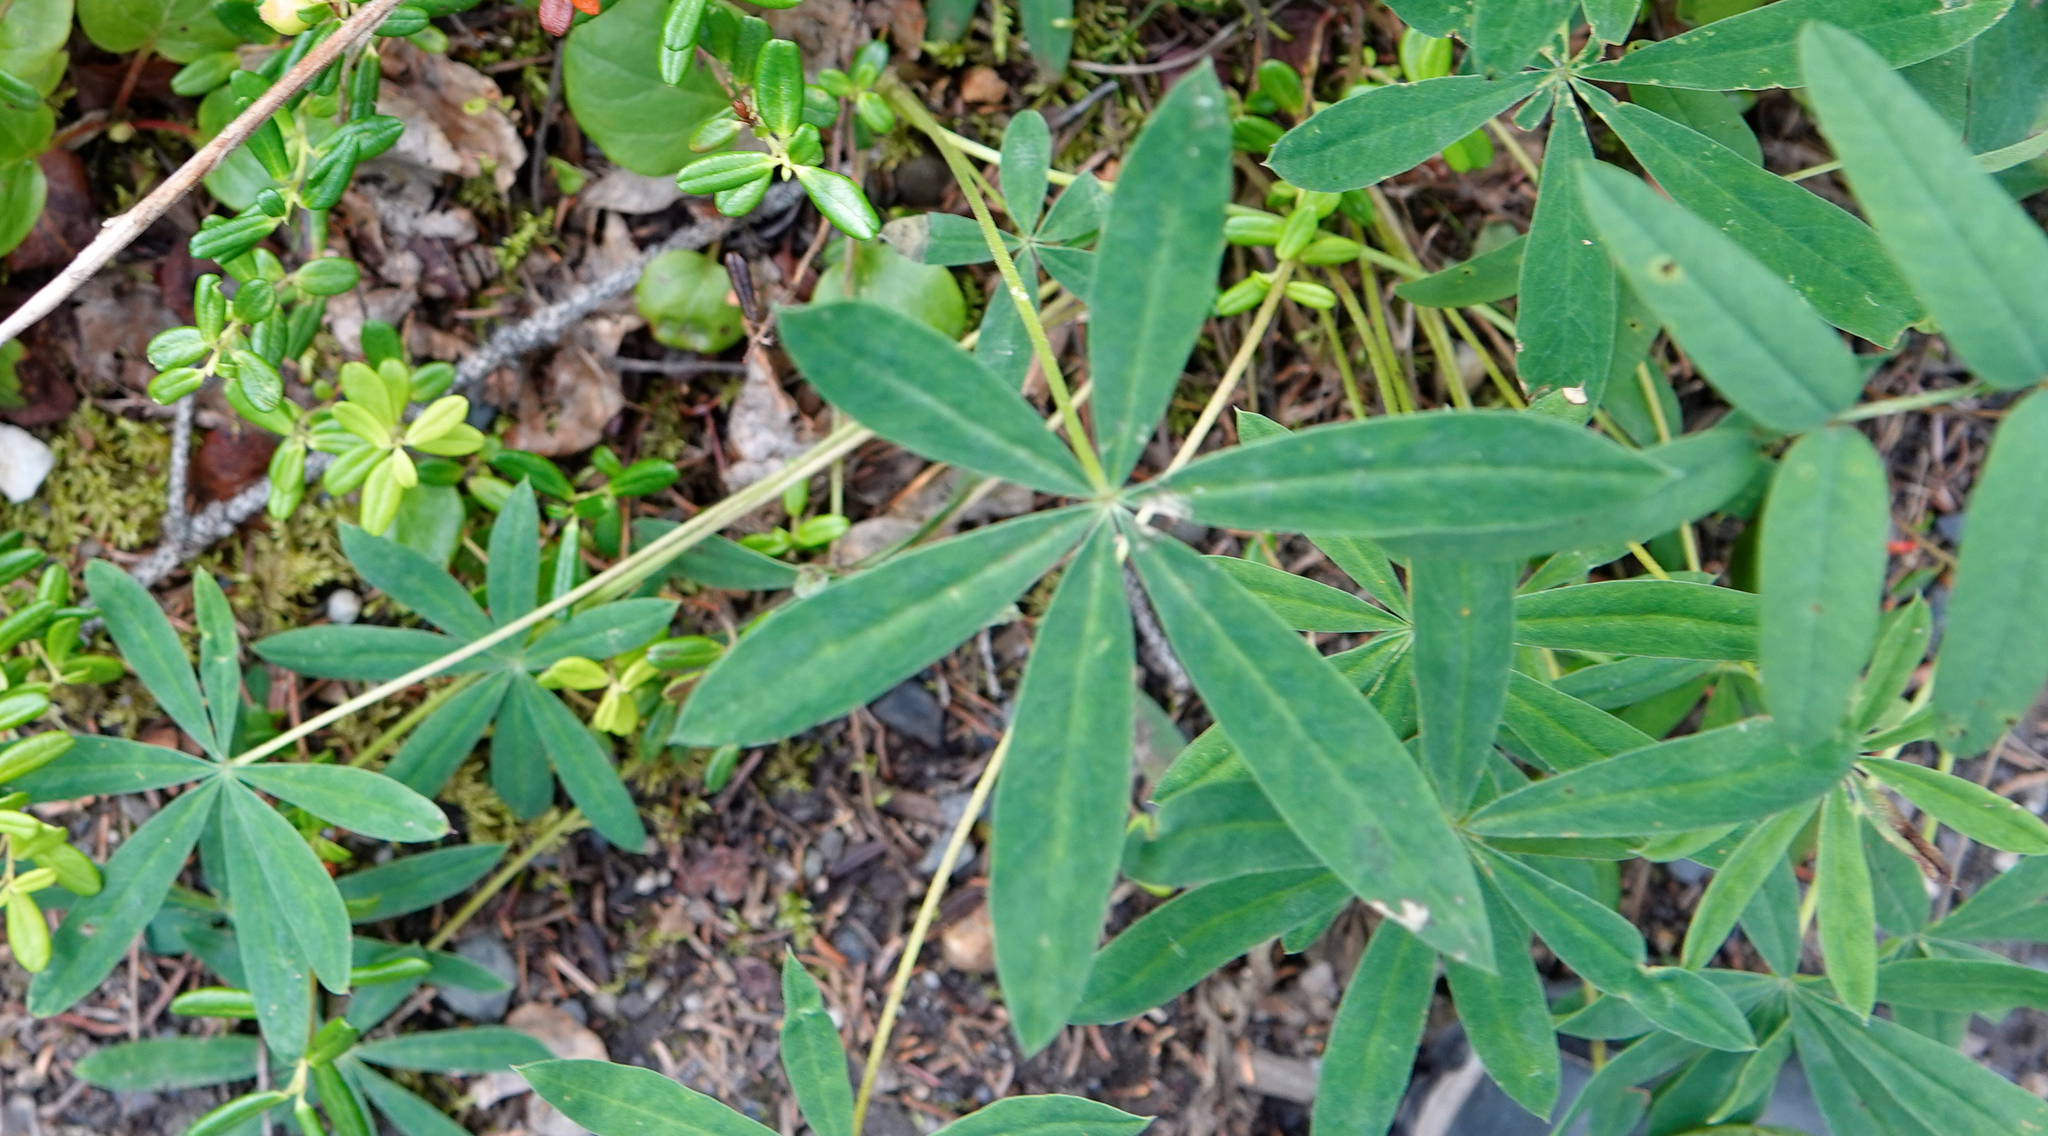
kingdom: Plantae
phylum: Tracheophyta
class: Magnoliopsida
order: Fabales
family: Fabaceae
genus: Lupinus
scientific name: Lupinus arcticus
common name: Arctic lupine
